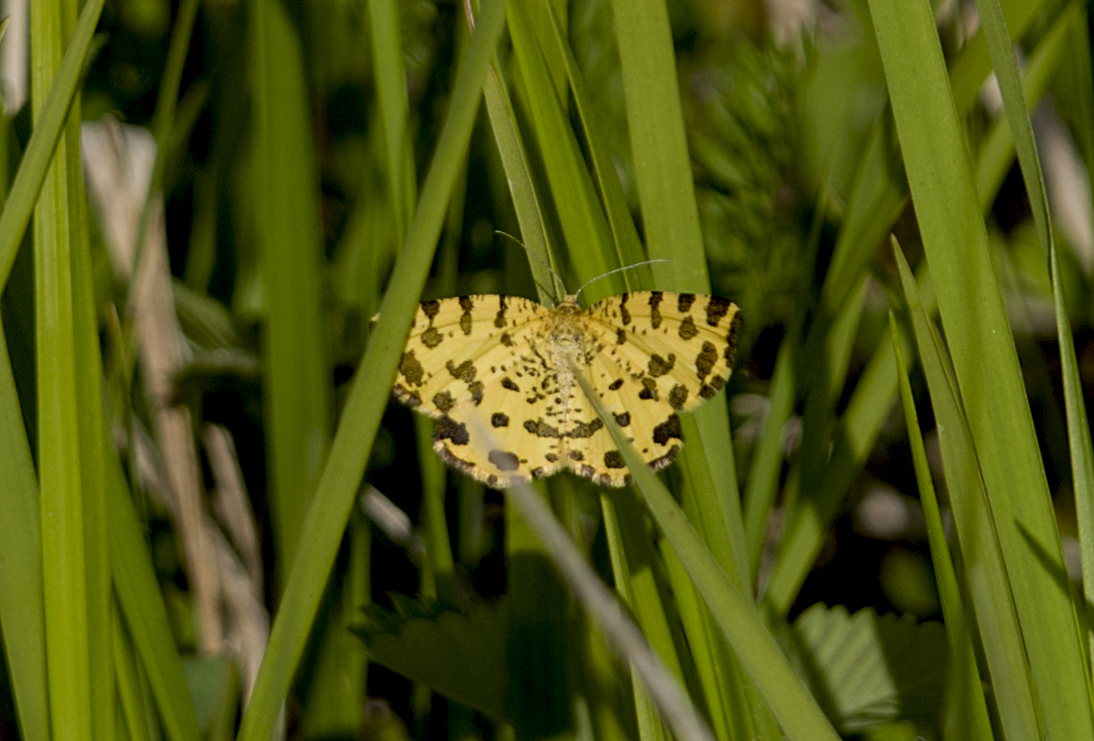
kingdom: Animalia
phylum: Arthropoda
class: Insecta
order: Lepidoptera
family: Geometridae
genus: Pseudopanthera
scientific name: Pseudopanthera macularia
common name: Speckled yellow
